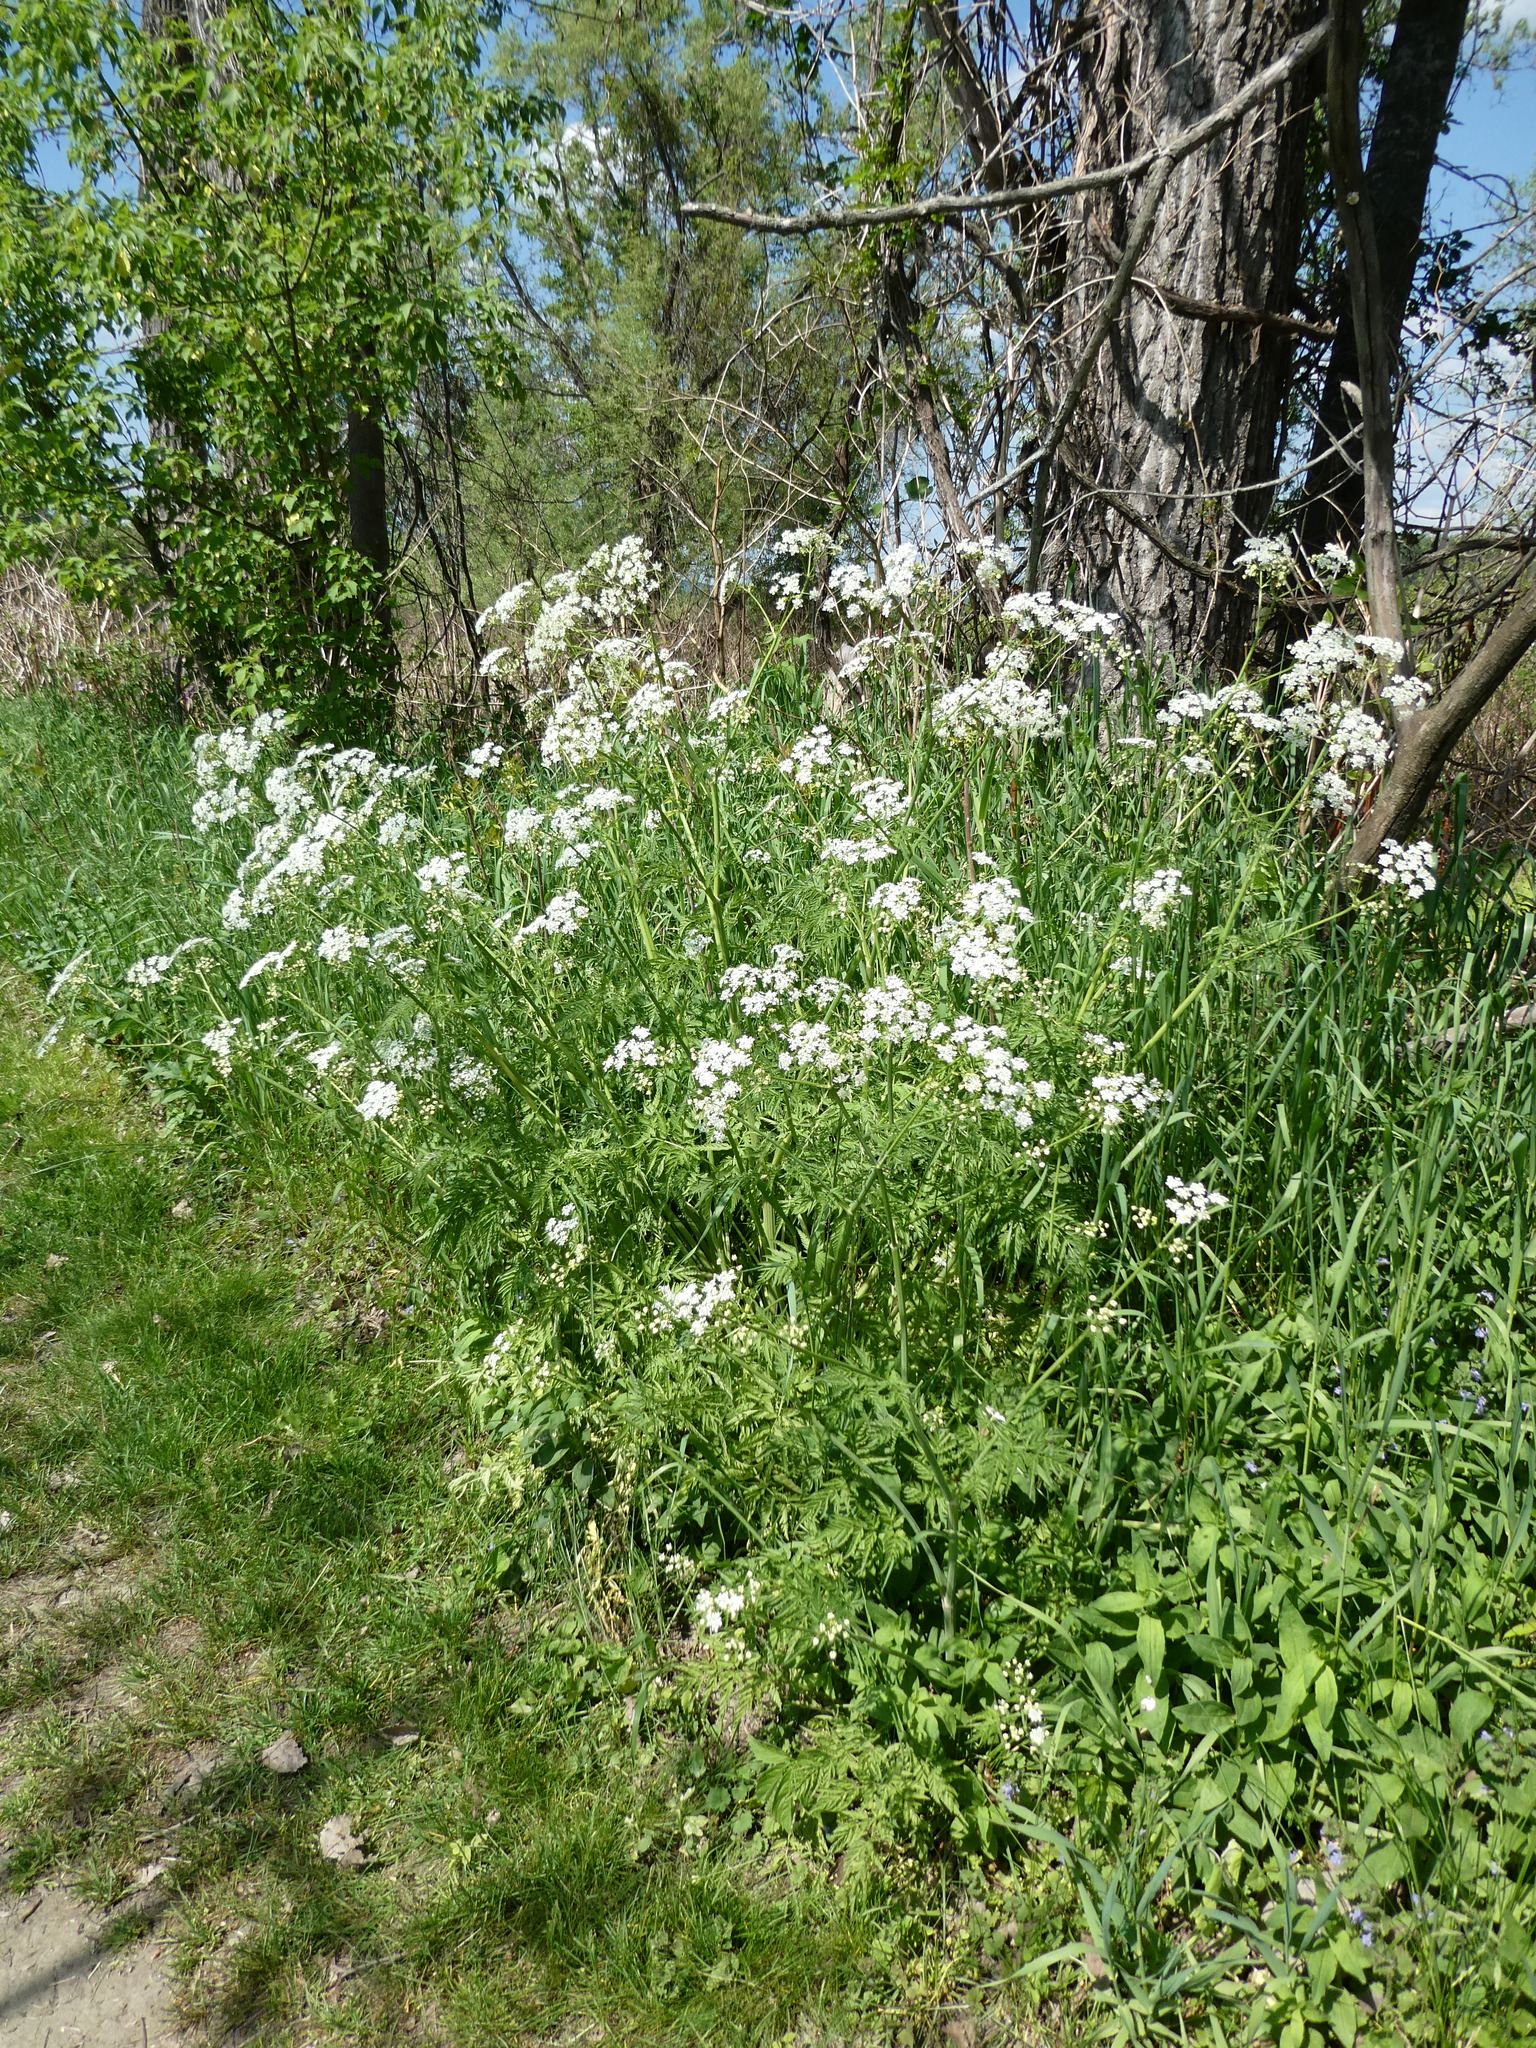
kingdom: Plantae
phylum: Tracheophyta
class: Magnoliopsida
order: Apiales
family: Apiaceae
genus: Anthriscus
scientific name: Anthriscus sylvestris
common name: Cow parsley
